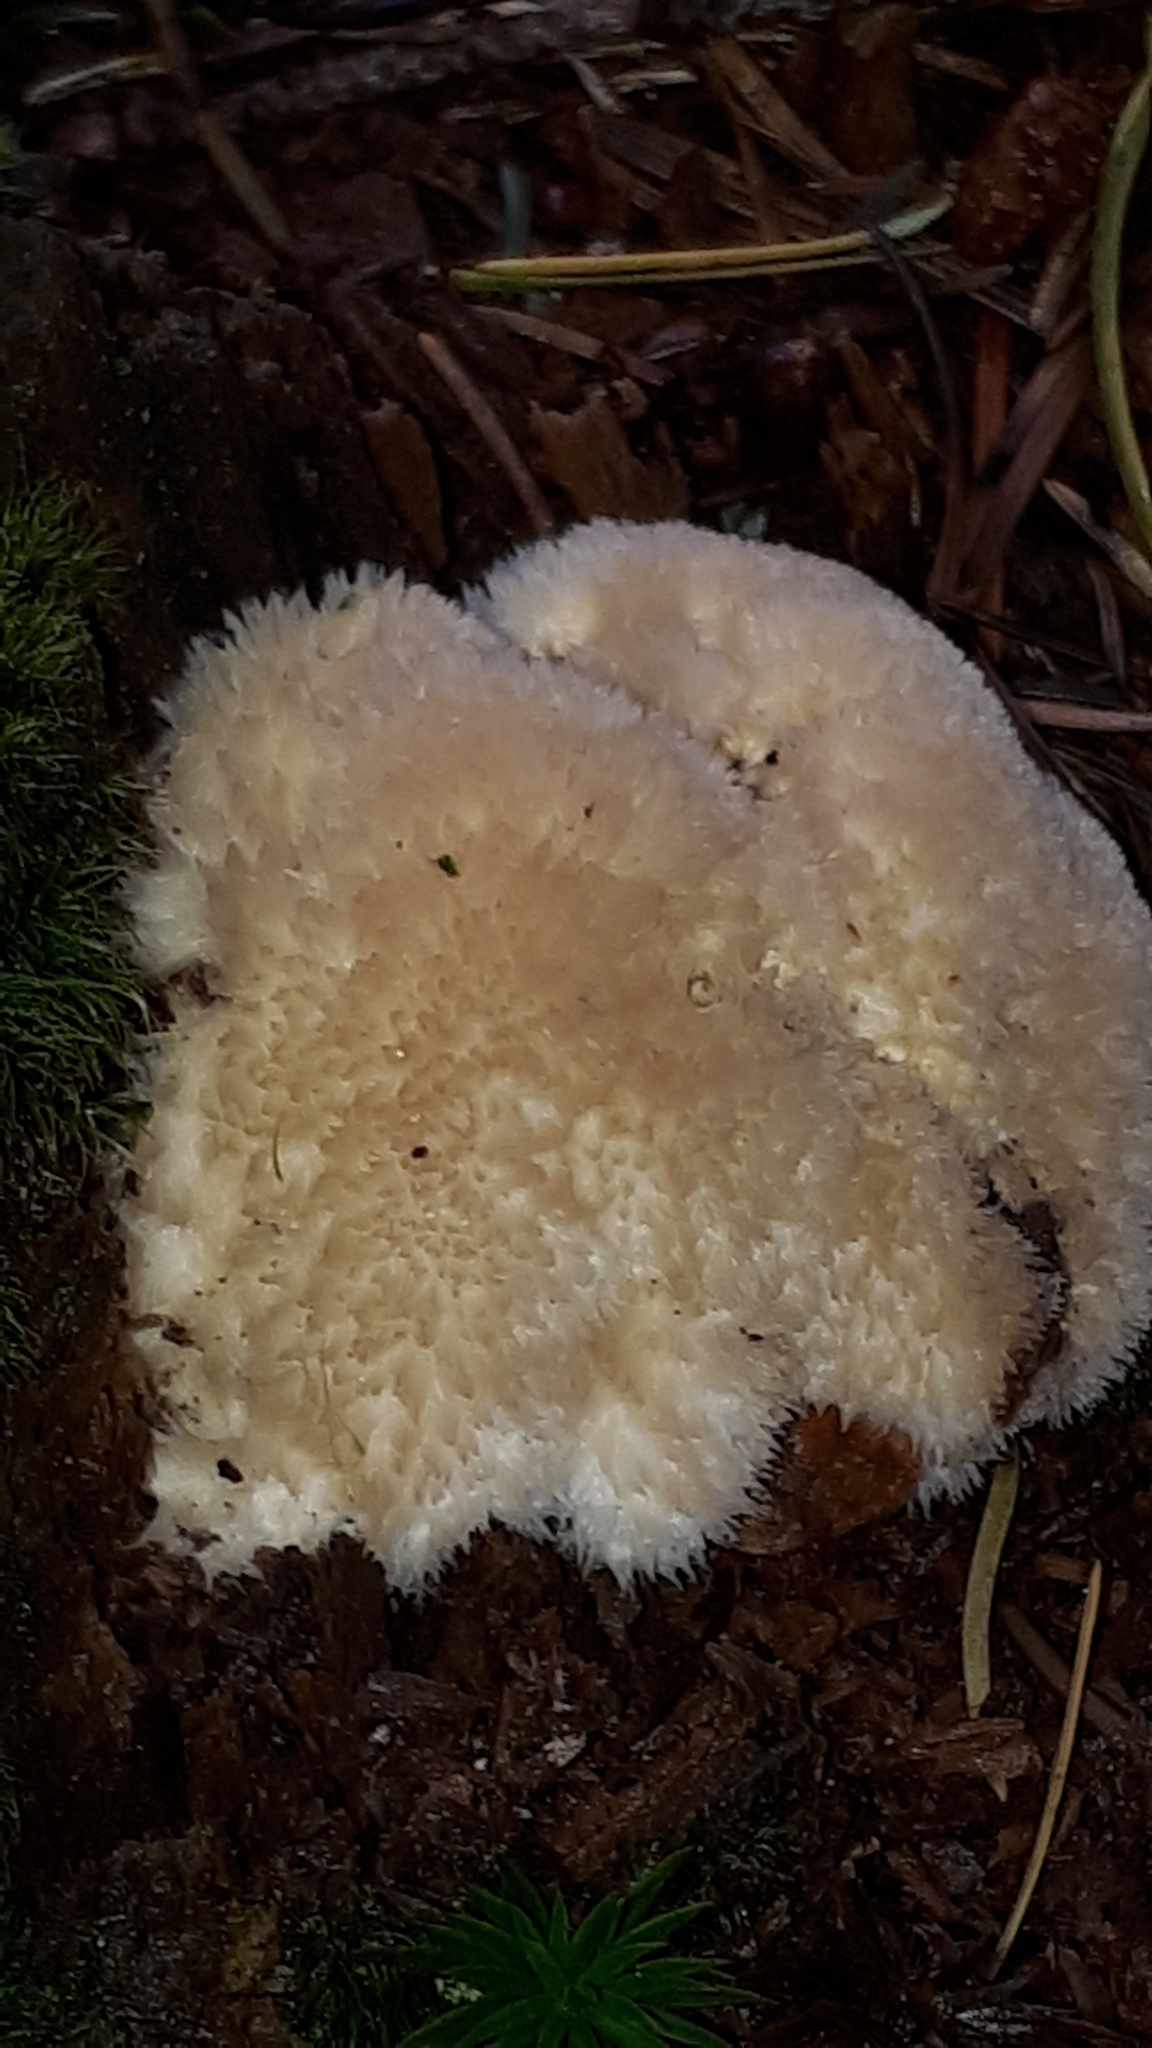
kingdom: Fungi
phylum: Basidiomycota
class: Agaricomycetes
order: Polyporales
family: Dacryobolaceae
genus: Postia
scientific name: Postia ptychogaster
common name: Powderpuff bracket
